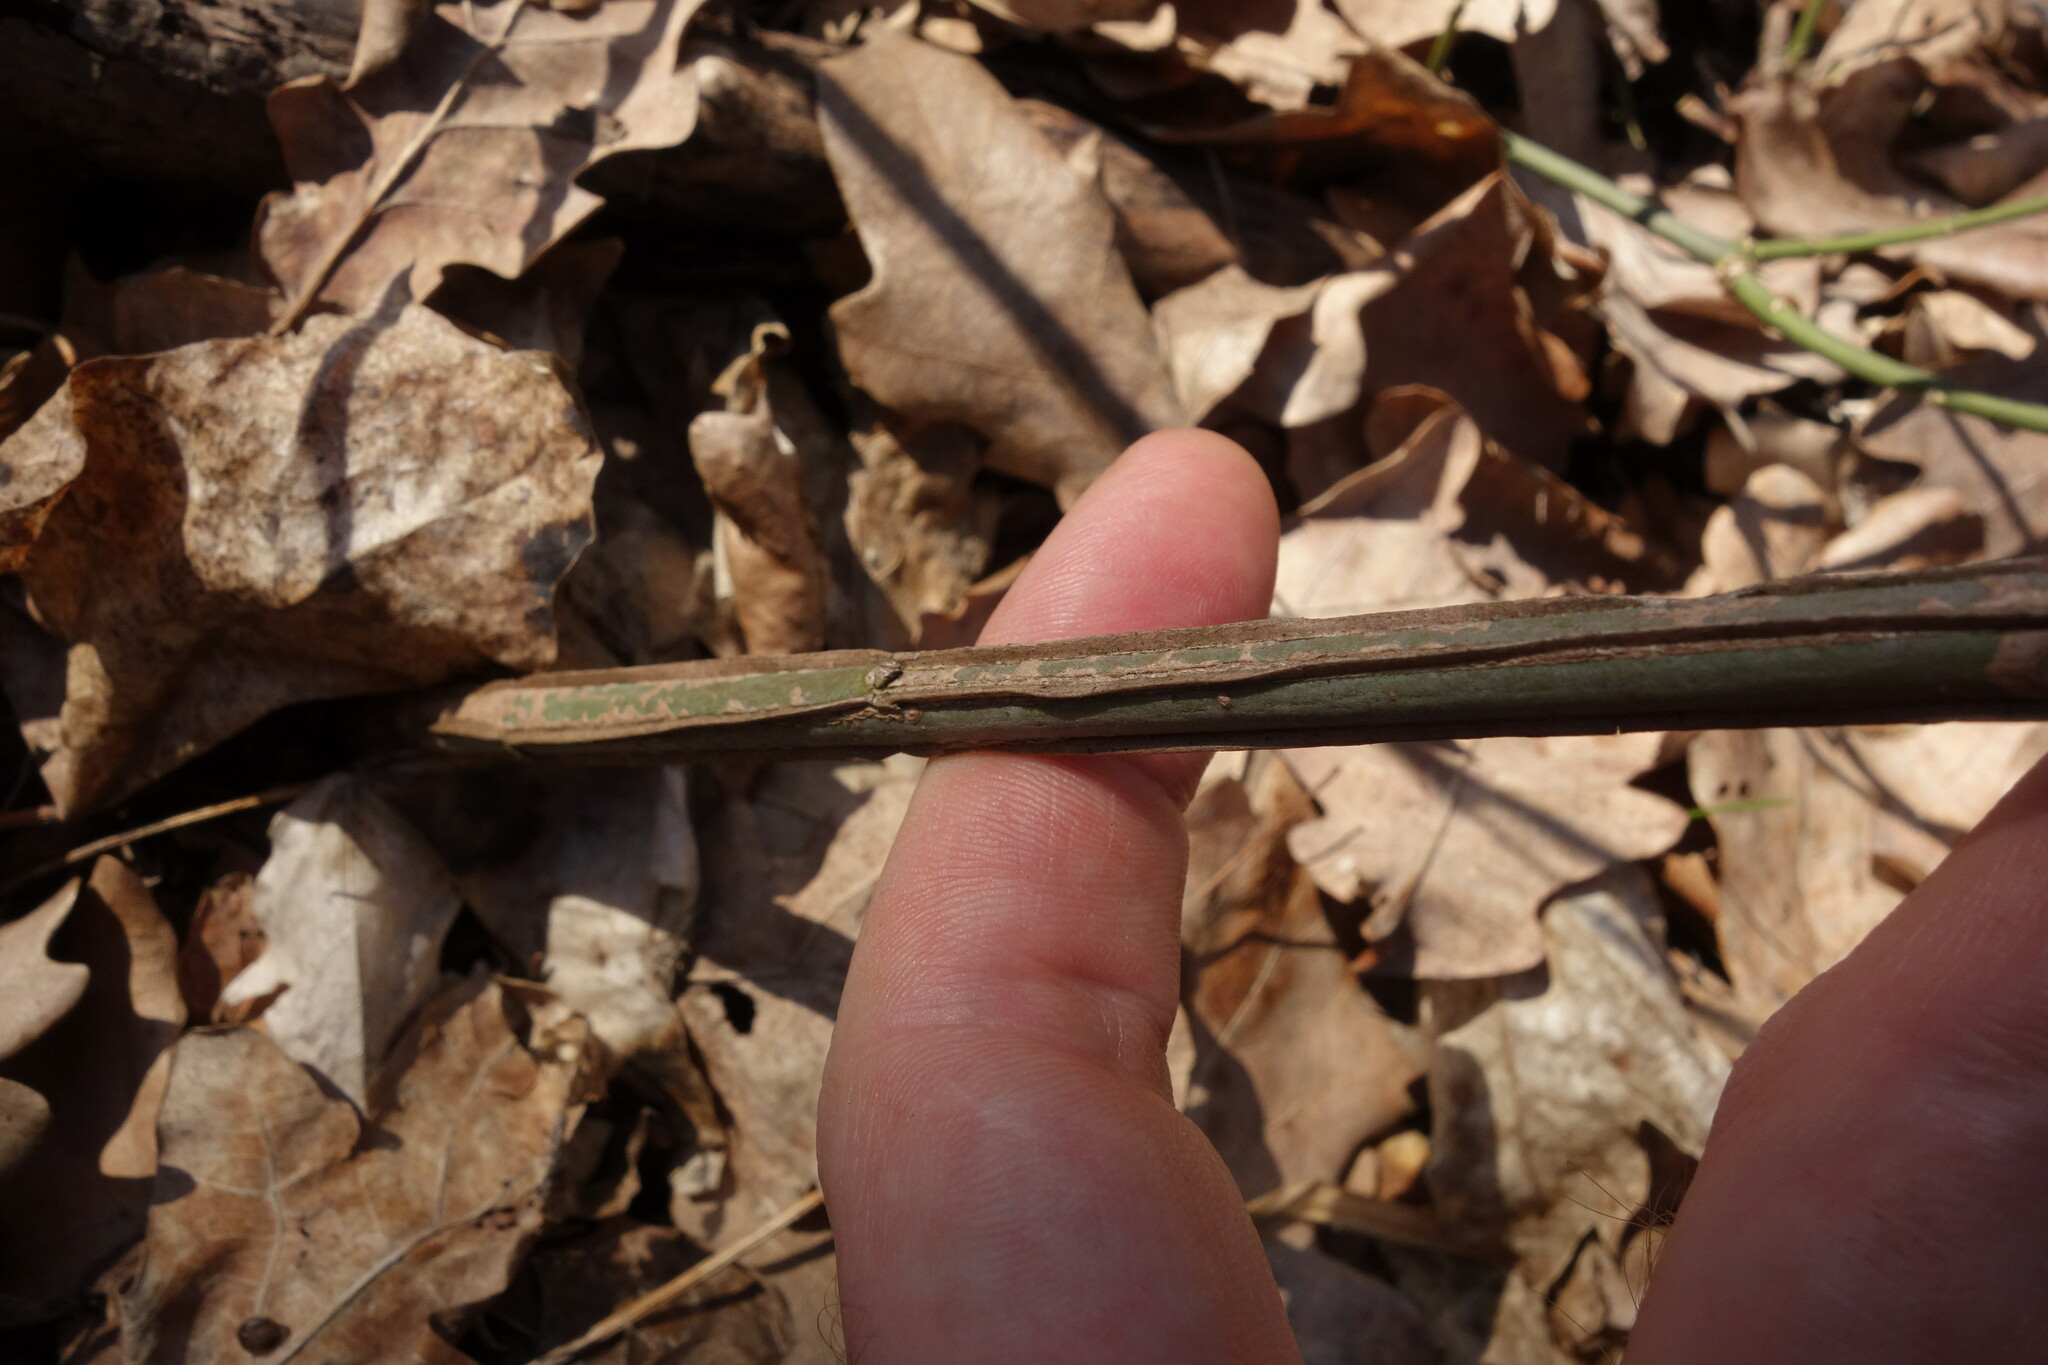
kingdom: Plantae
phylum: Tracheophyta
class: Magnoliopsida
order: Celastrales
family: Celastraceae
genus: Euonymus
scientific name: Euonymus europaeus
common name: Spindle
